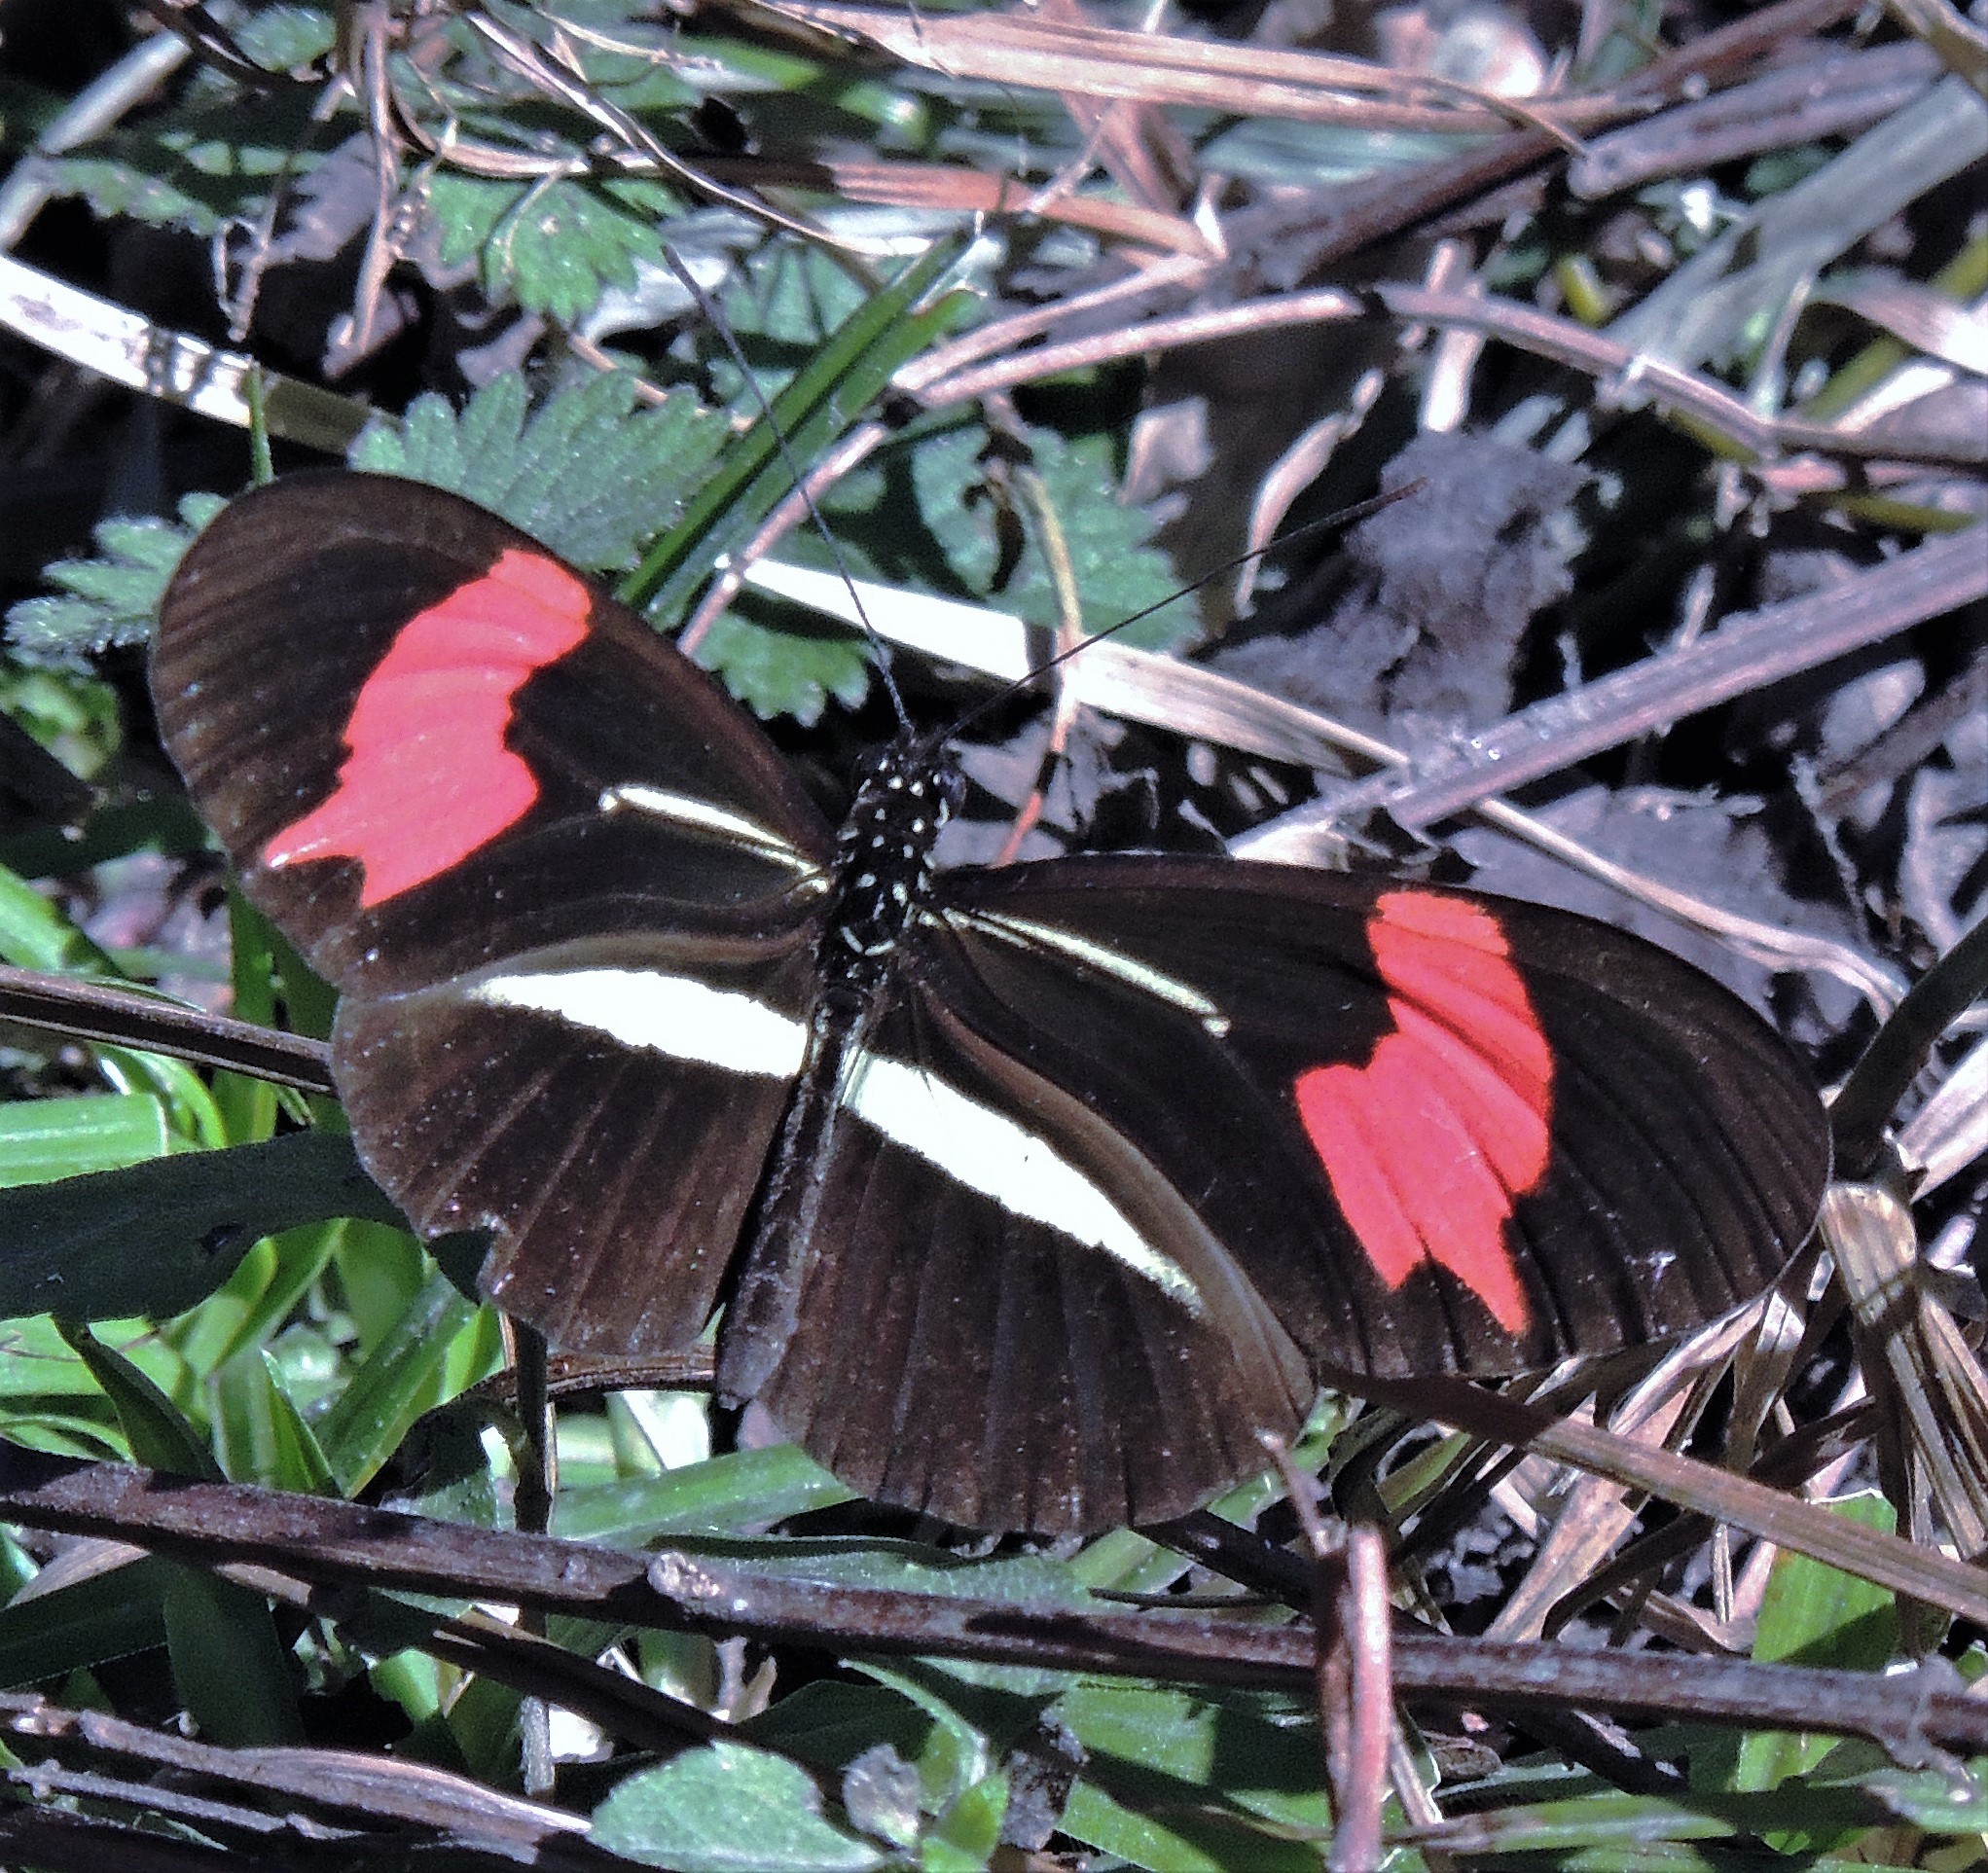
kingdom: Animalia
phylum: Arthropoda
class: Insecta
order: Lepidoptera
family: Nymphalidae
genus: Heliconius
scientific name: Heliconius erato
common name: Common patch longwing
